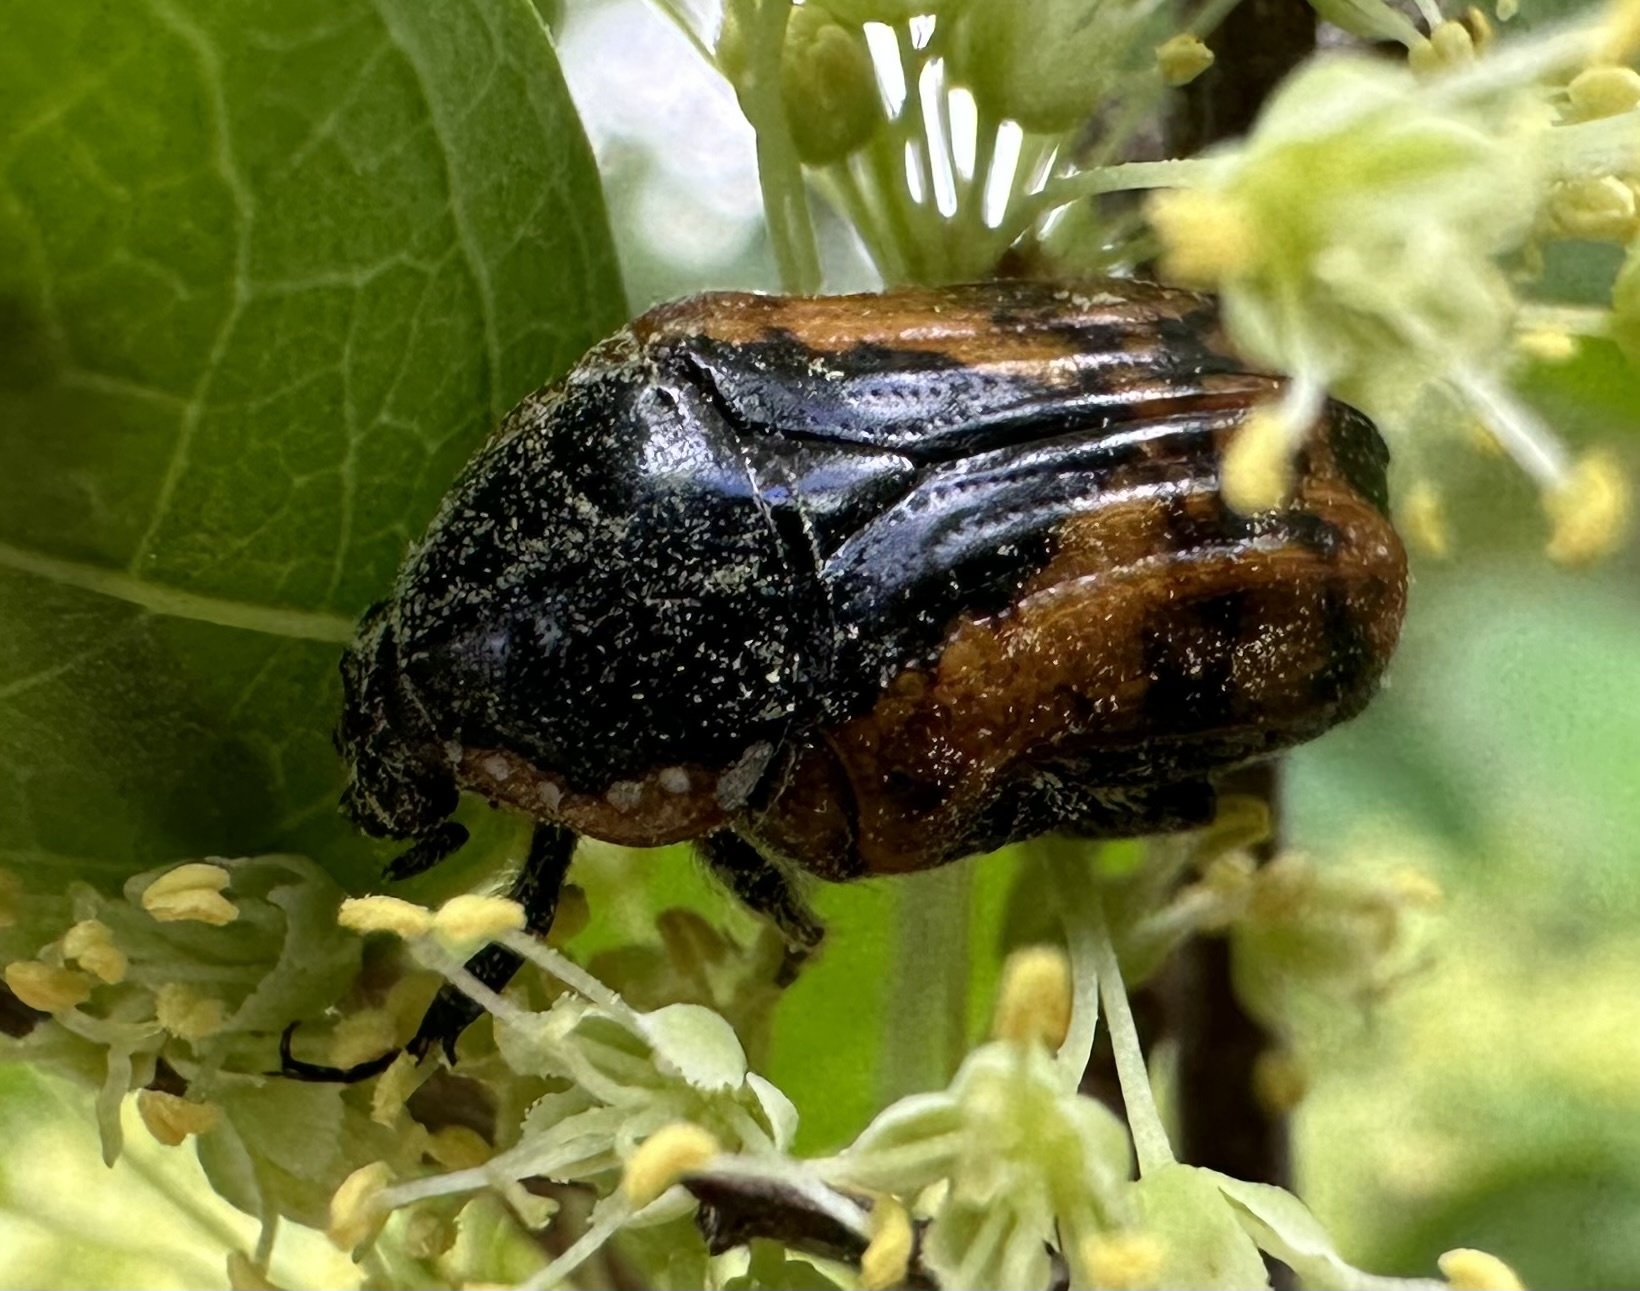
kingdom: Animalia
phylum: Arthropoda
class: Insecta
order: Coleoptera
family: Scarabaeidae
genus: Dolichostethus
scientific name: Dolichostethus levis
